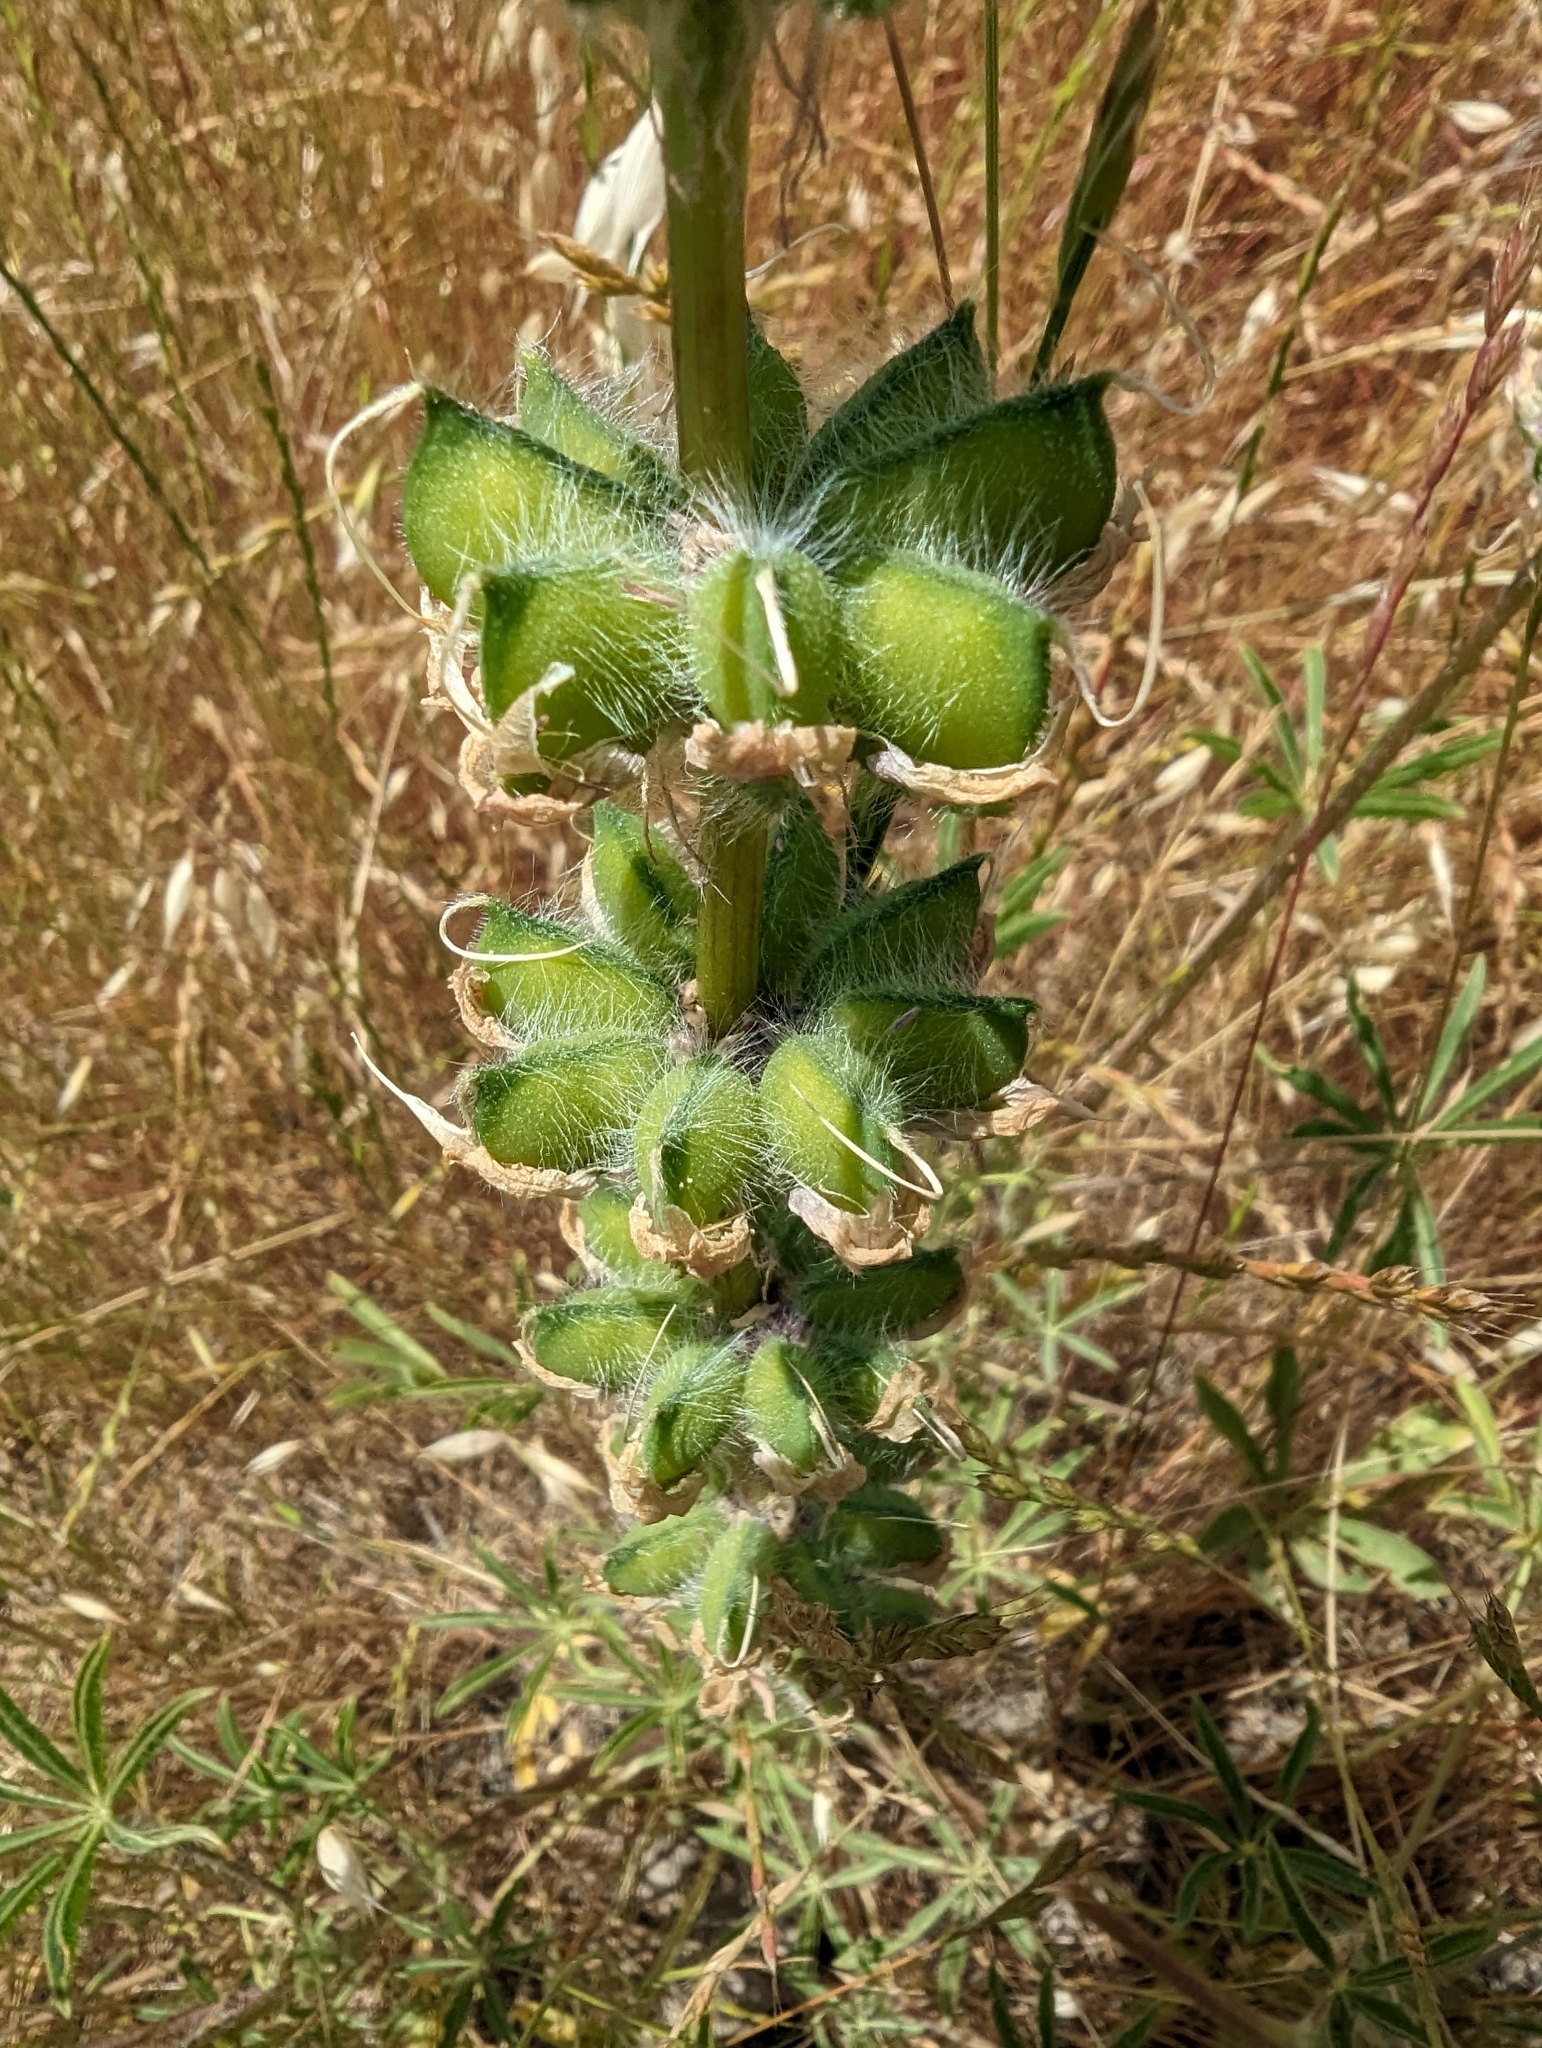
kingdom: Plantae
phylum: Tracheophyta
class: Magnoliopsida
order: Fabales
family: Fabaceae
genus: Lupinus
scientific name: Lupinus microcarpus
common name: Chick lupine
